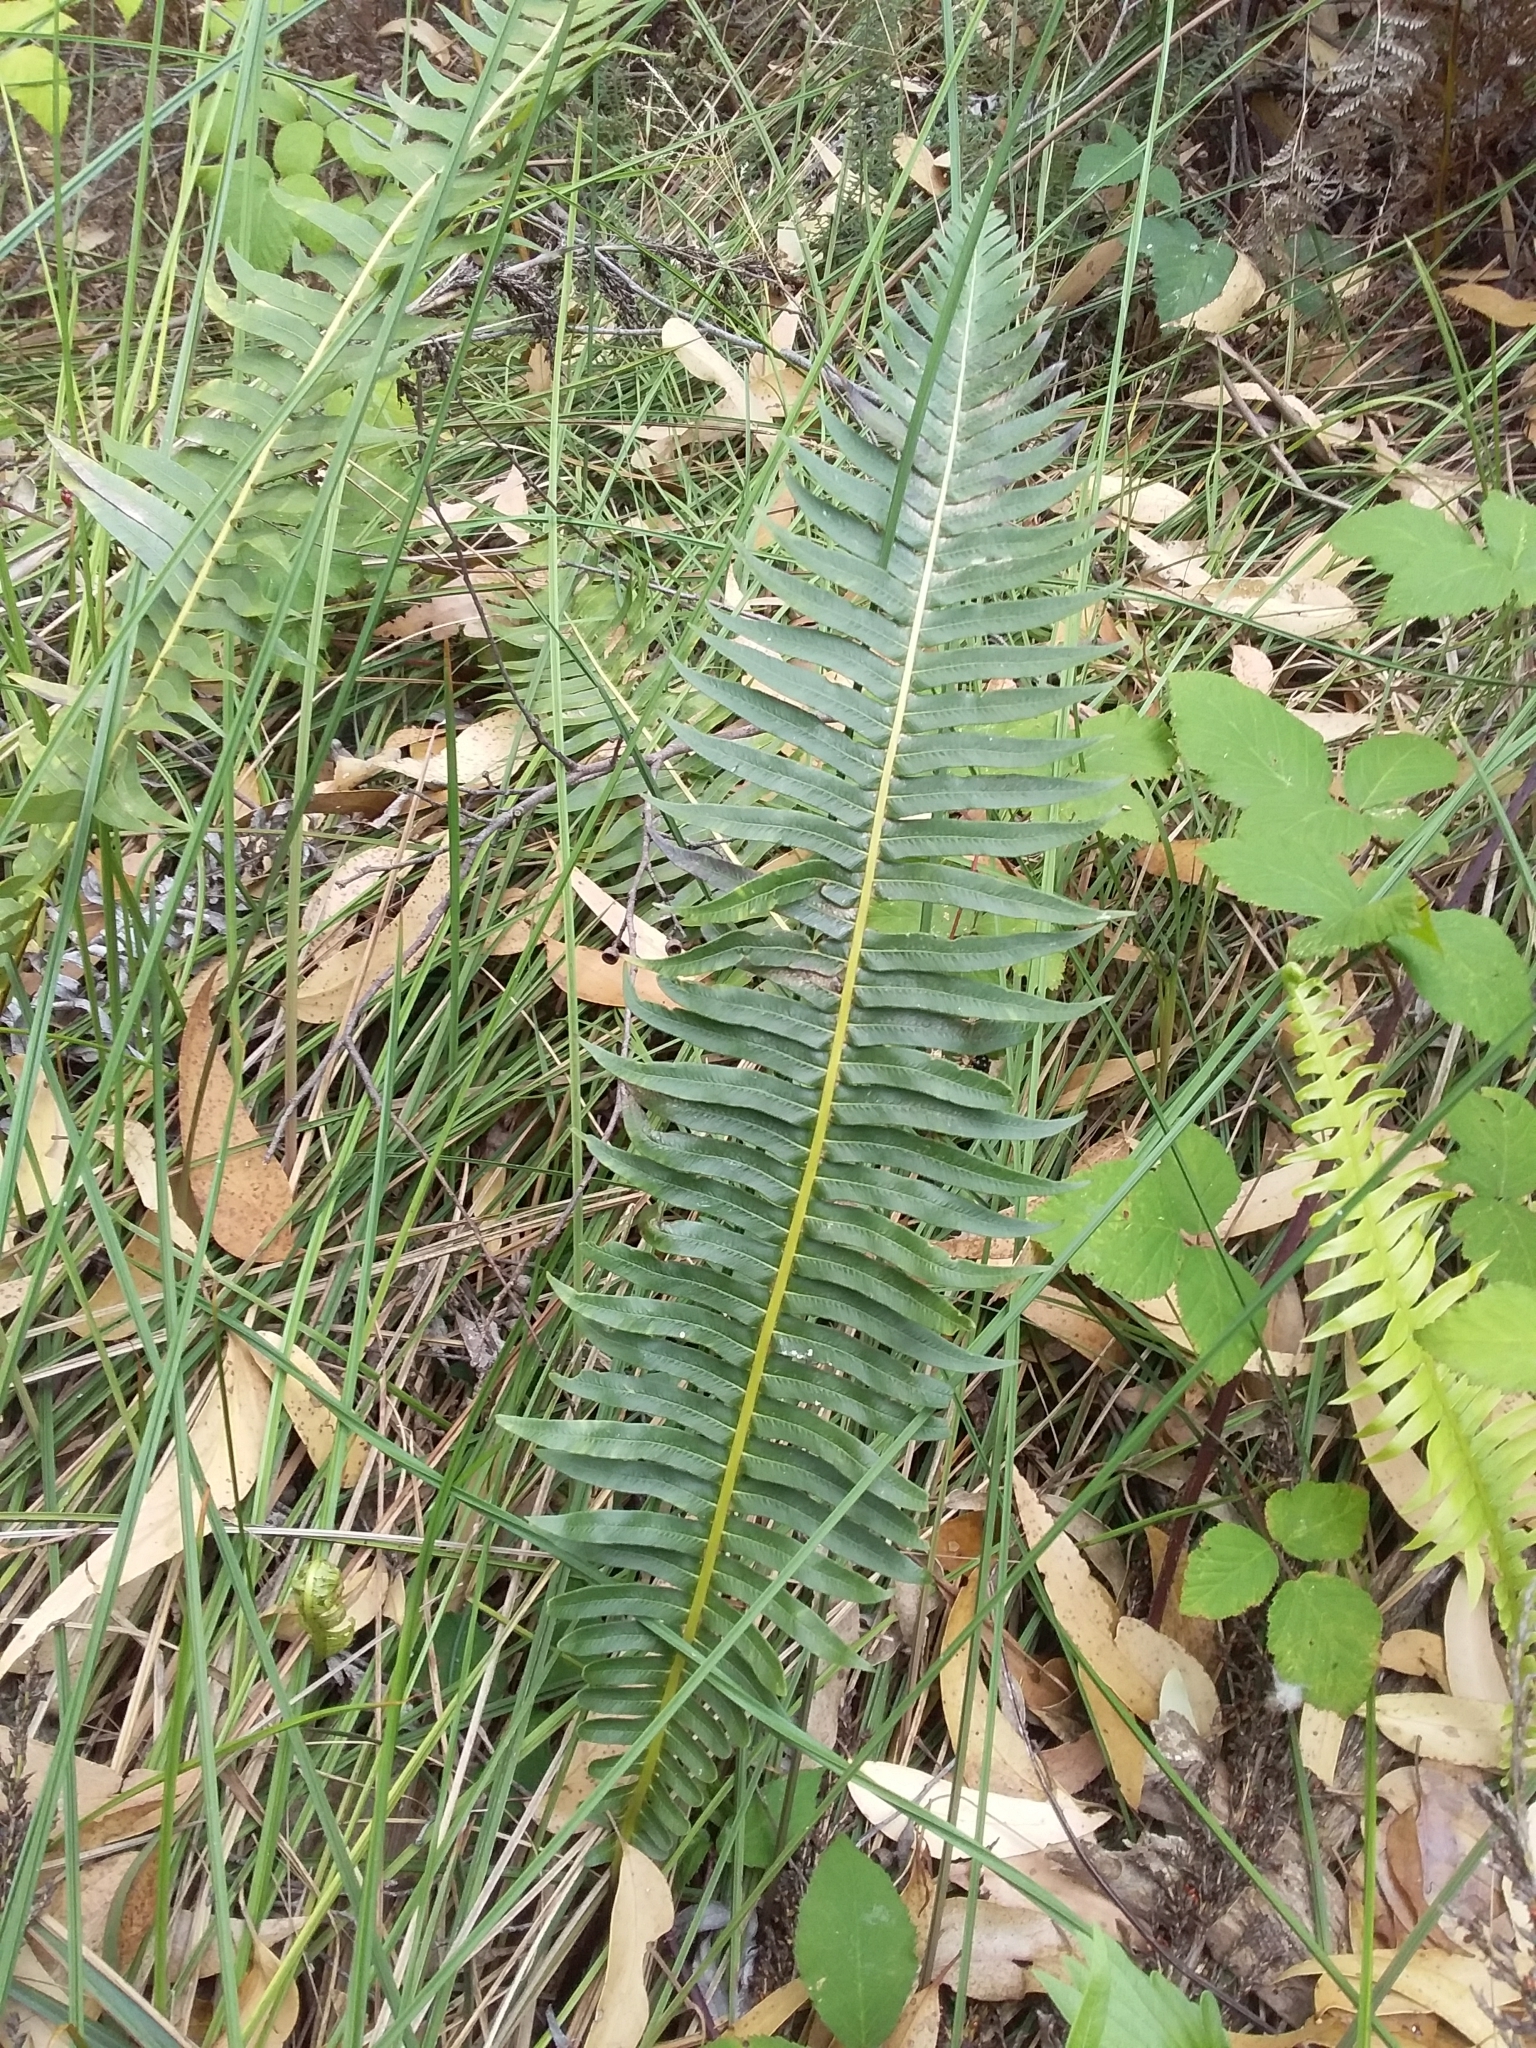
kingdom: Plantae
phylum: Tracheophyta
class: Polypodiopsida
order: Polypodiales
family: Blechnaceae
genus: Lomaria
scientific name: Lomaria nuda
